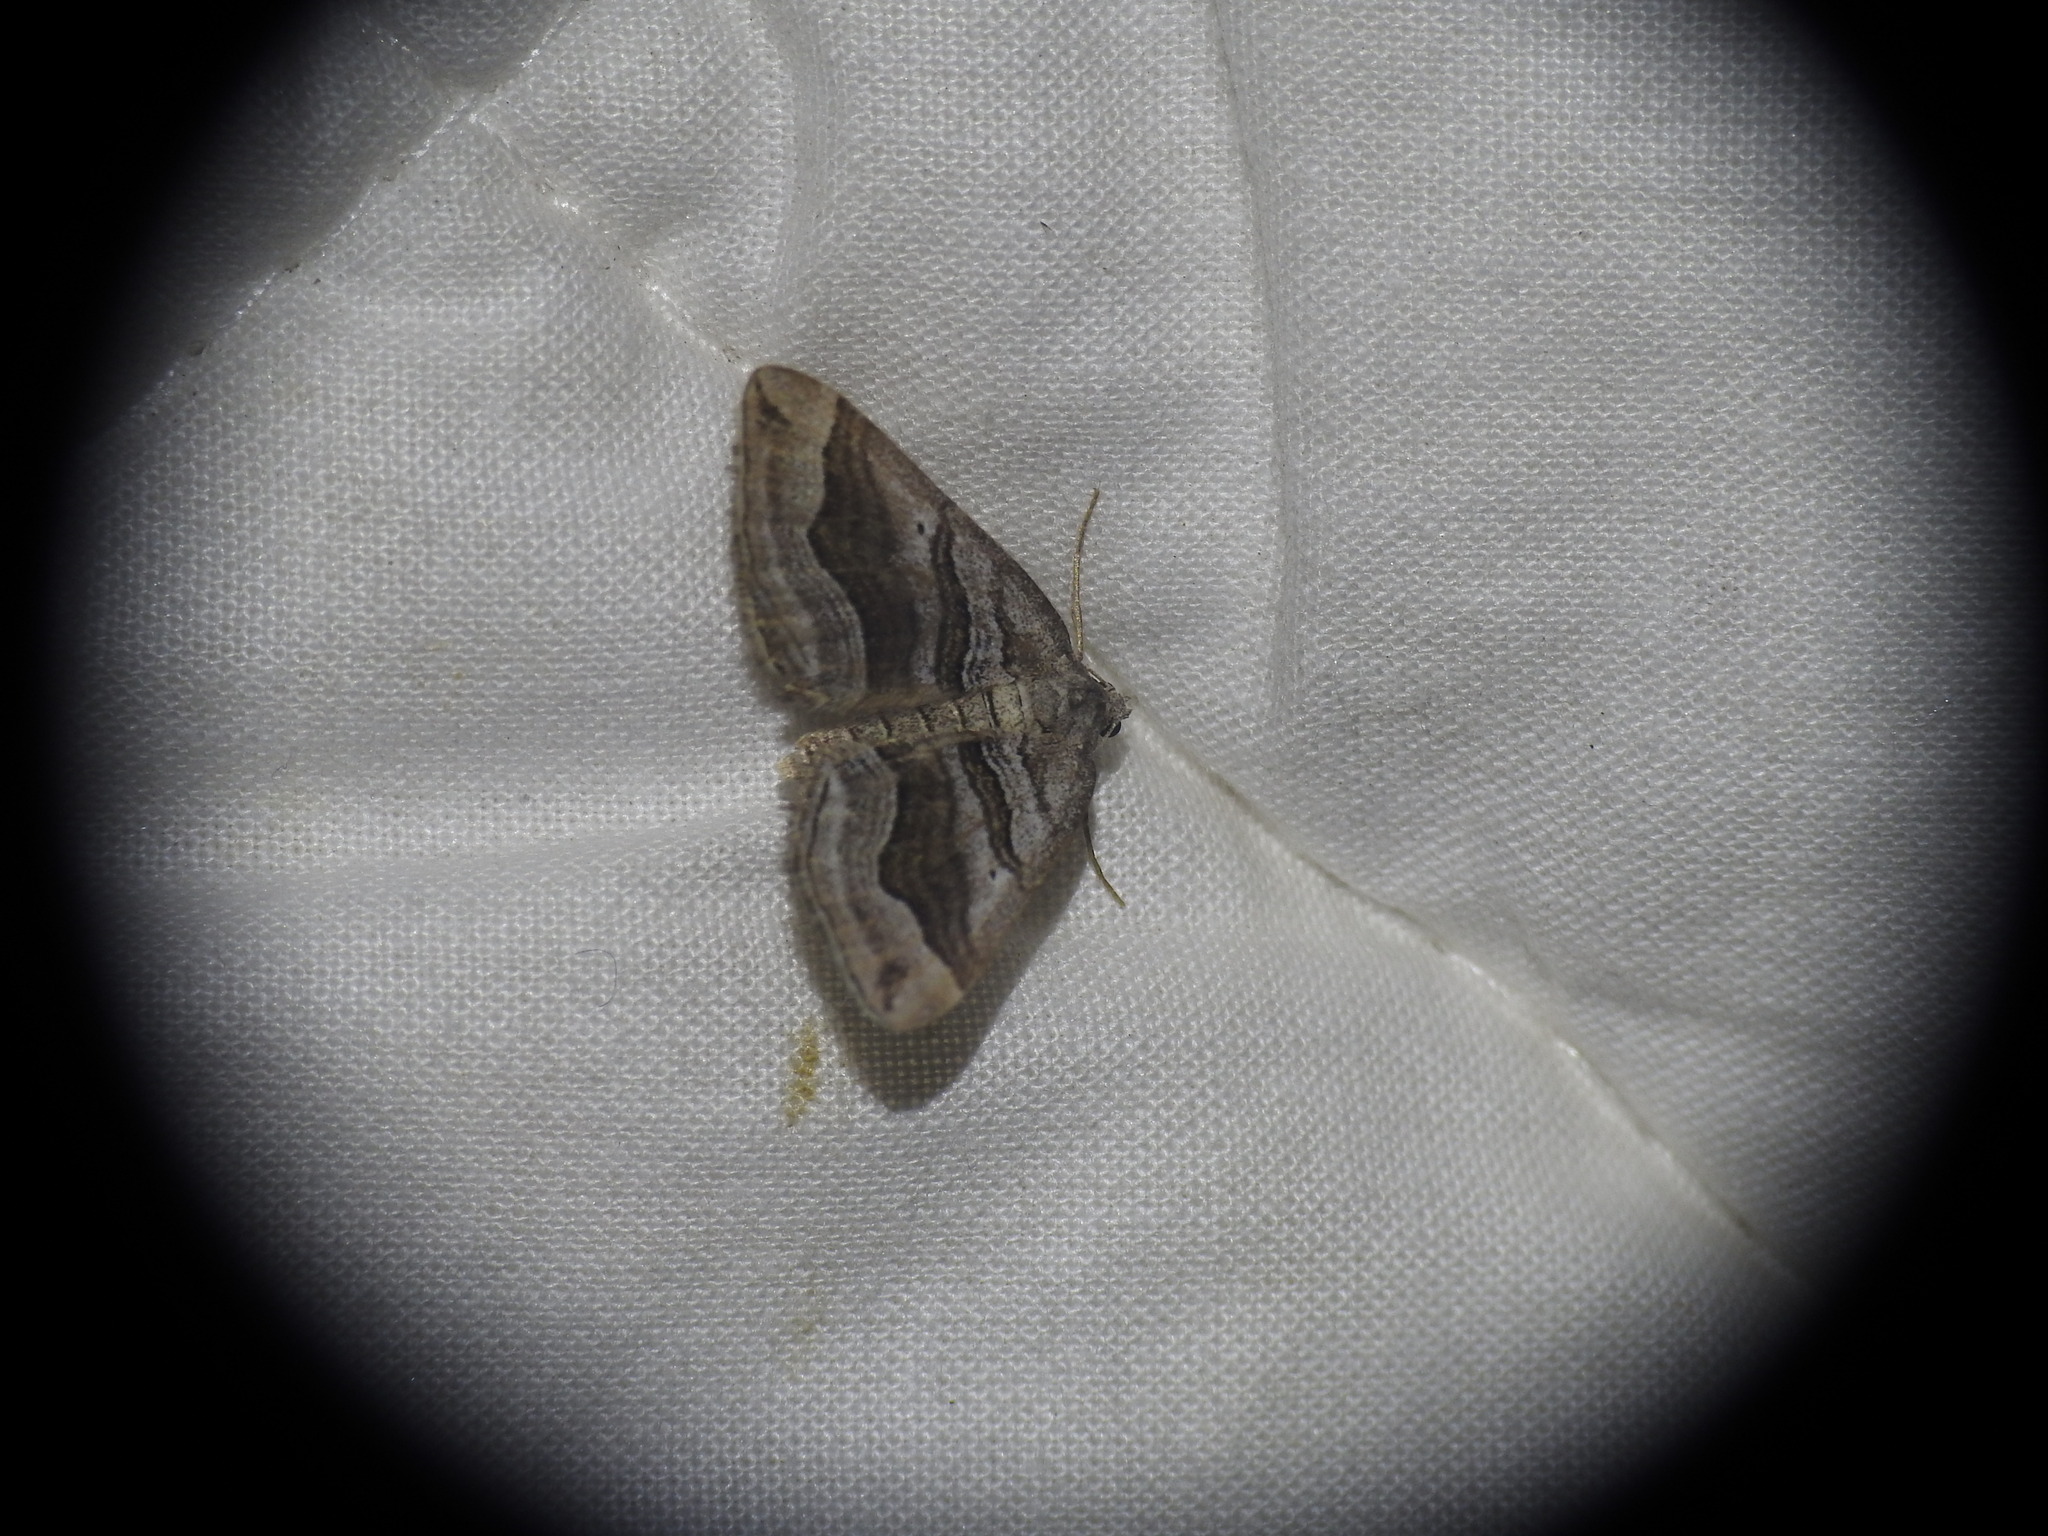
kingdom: Animalia
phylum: Arthropoda
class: Insecta
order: Lepidoptera
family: Geometridae
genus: Scotopteryx
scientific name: Scotopteryx peribolata
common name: Spanish carpet
